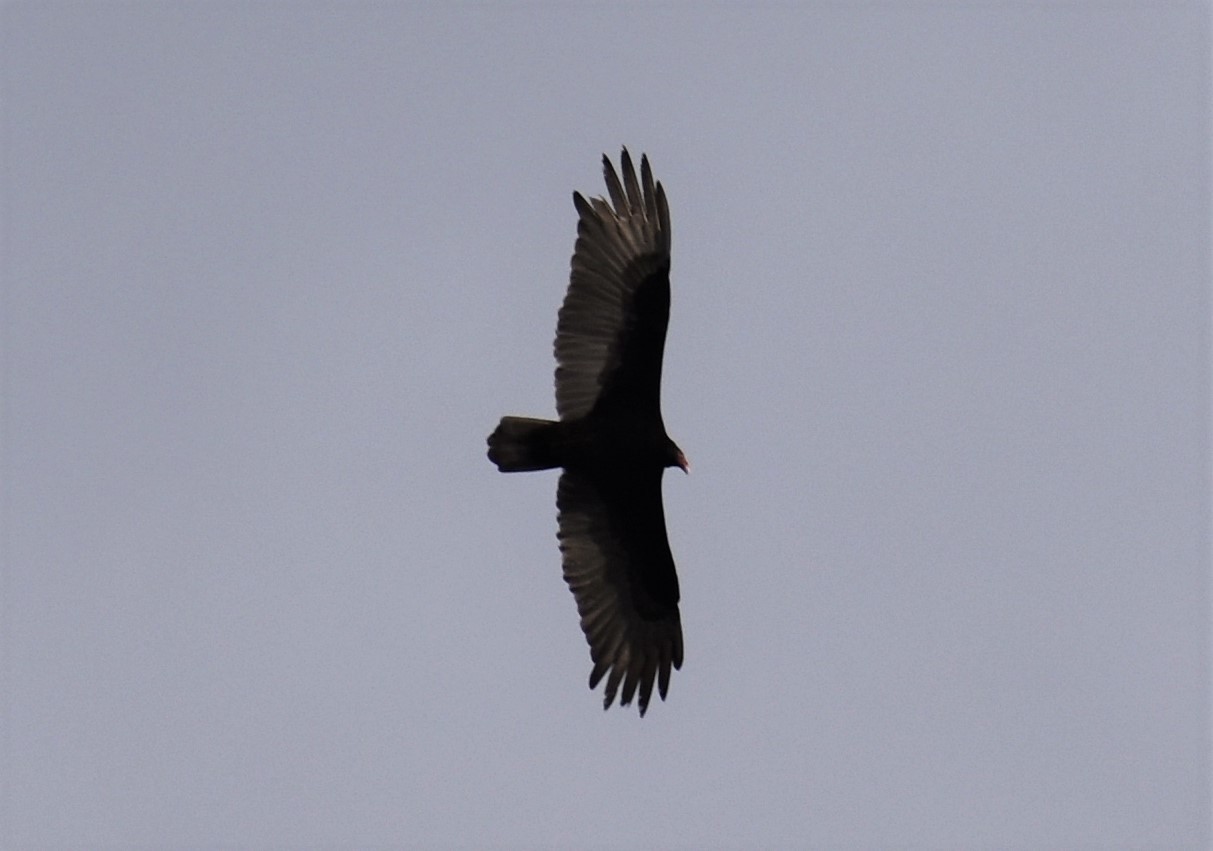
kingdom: Animalia
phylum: Chordata
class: Aves
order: Accipitriformes
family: Cathartidae
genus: Cathartes
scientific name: Cathartes aura
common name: Turkey vulture
